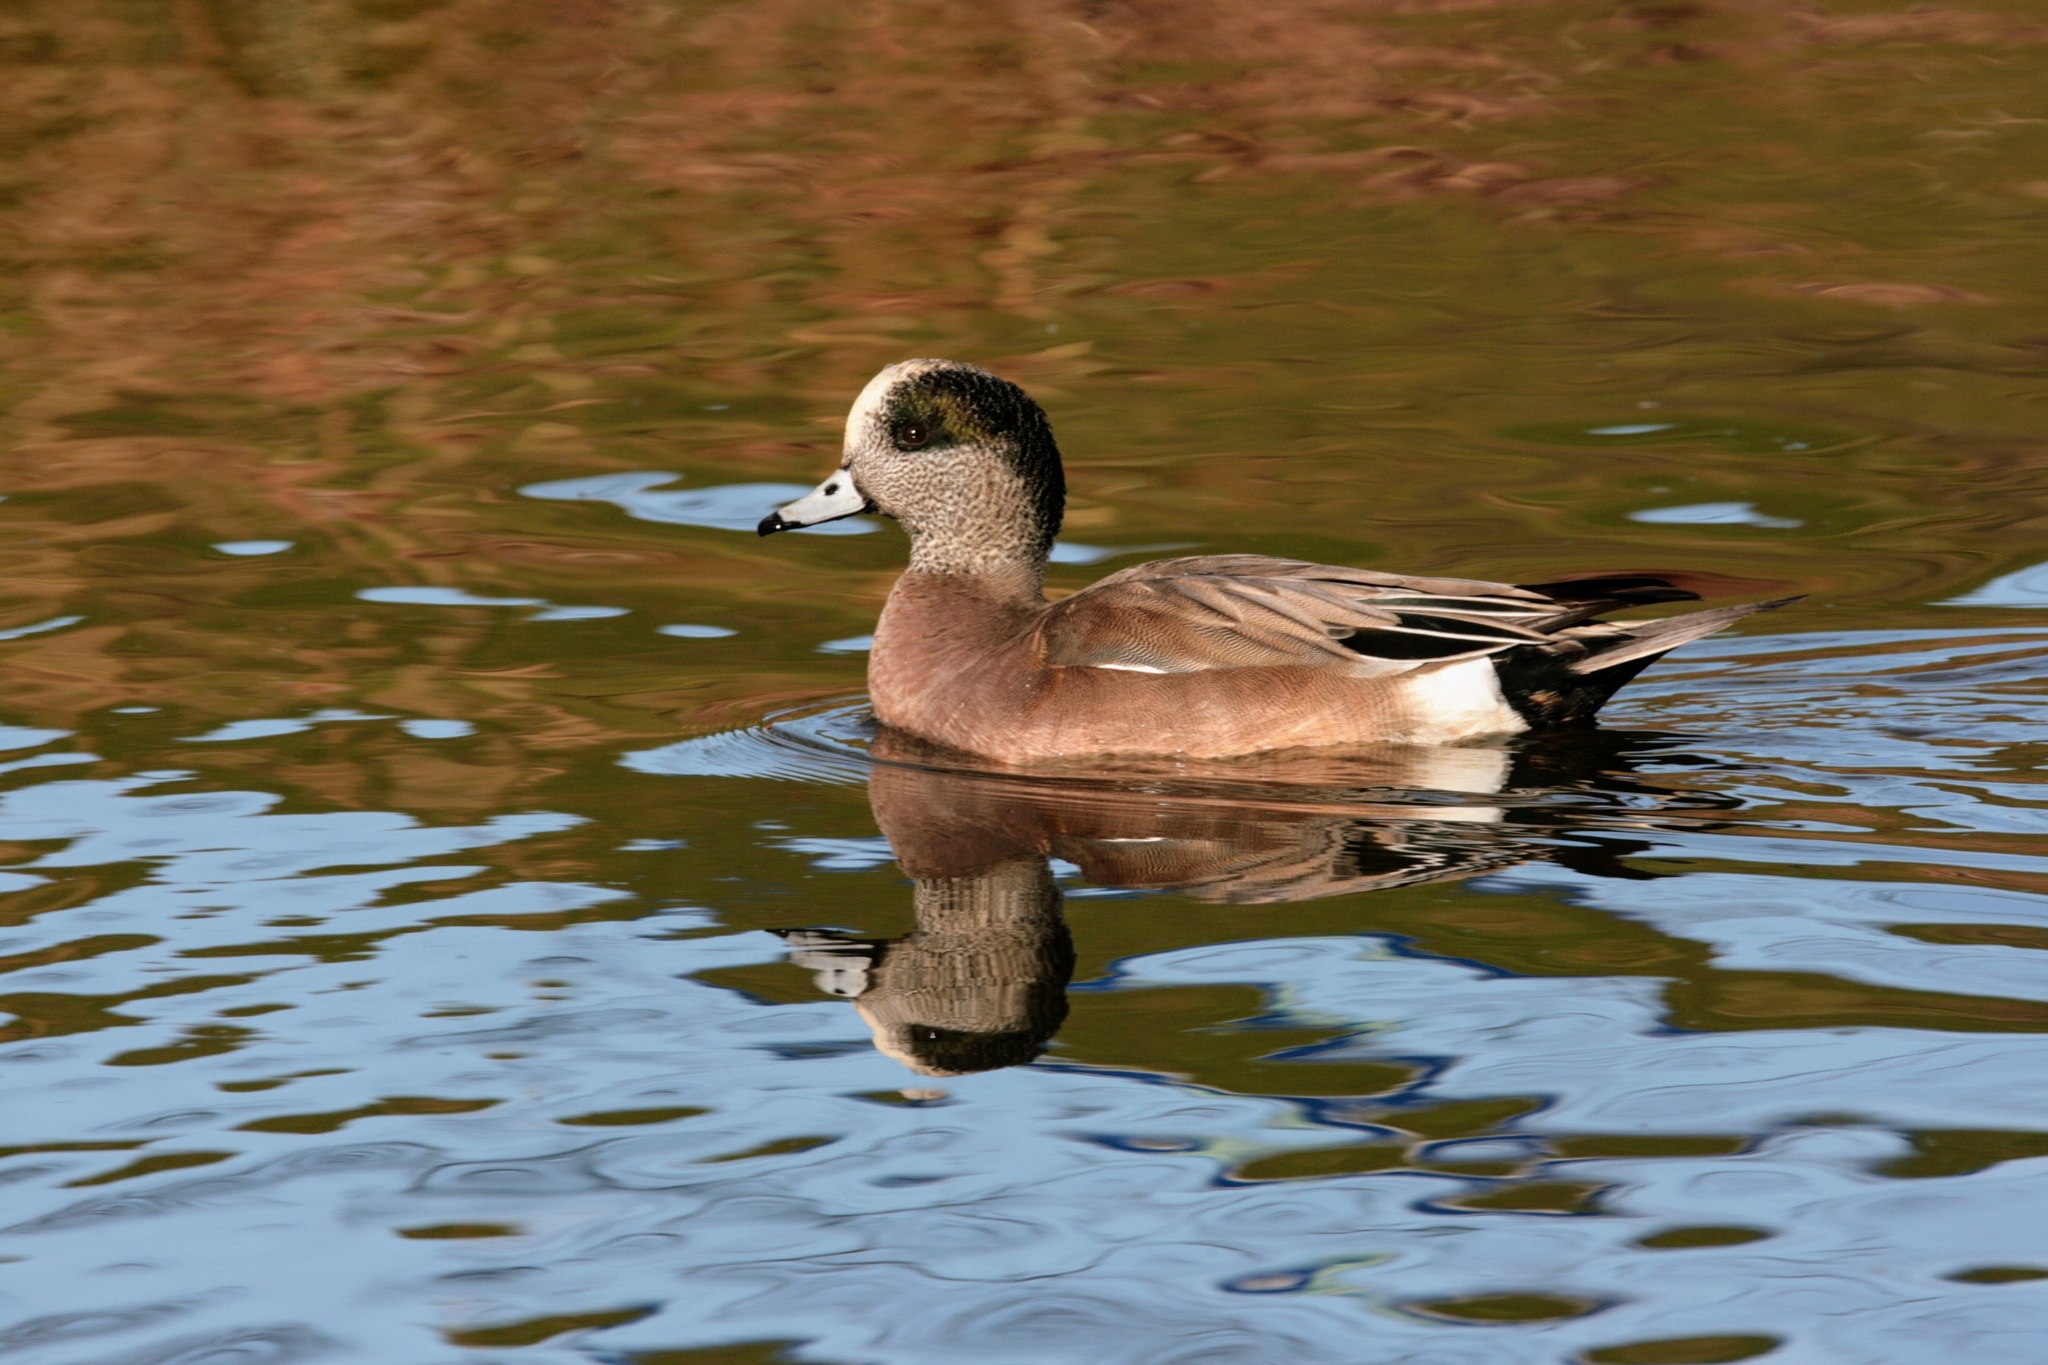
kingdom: Animalia
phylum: Chordata
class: Aves
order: Anseriformes
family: Anatidae
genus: Mareca
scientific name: Mareca americana
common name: American wigeon
